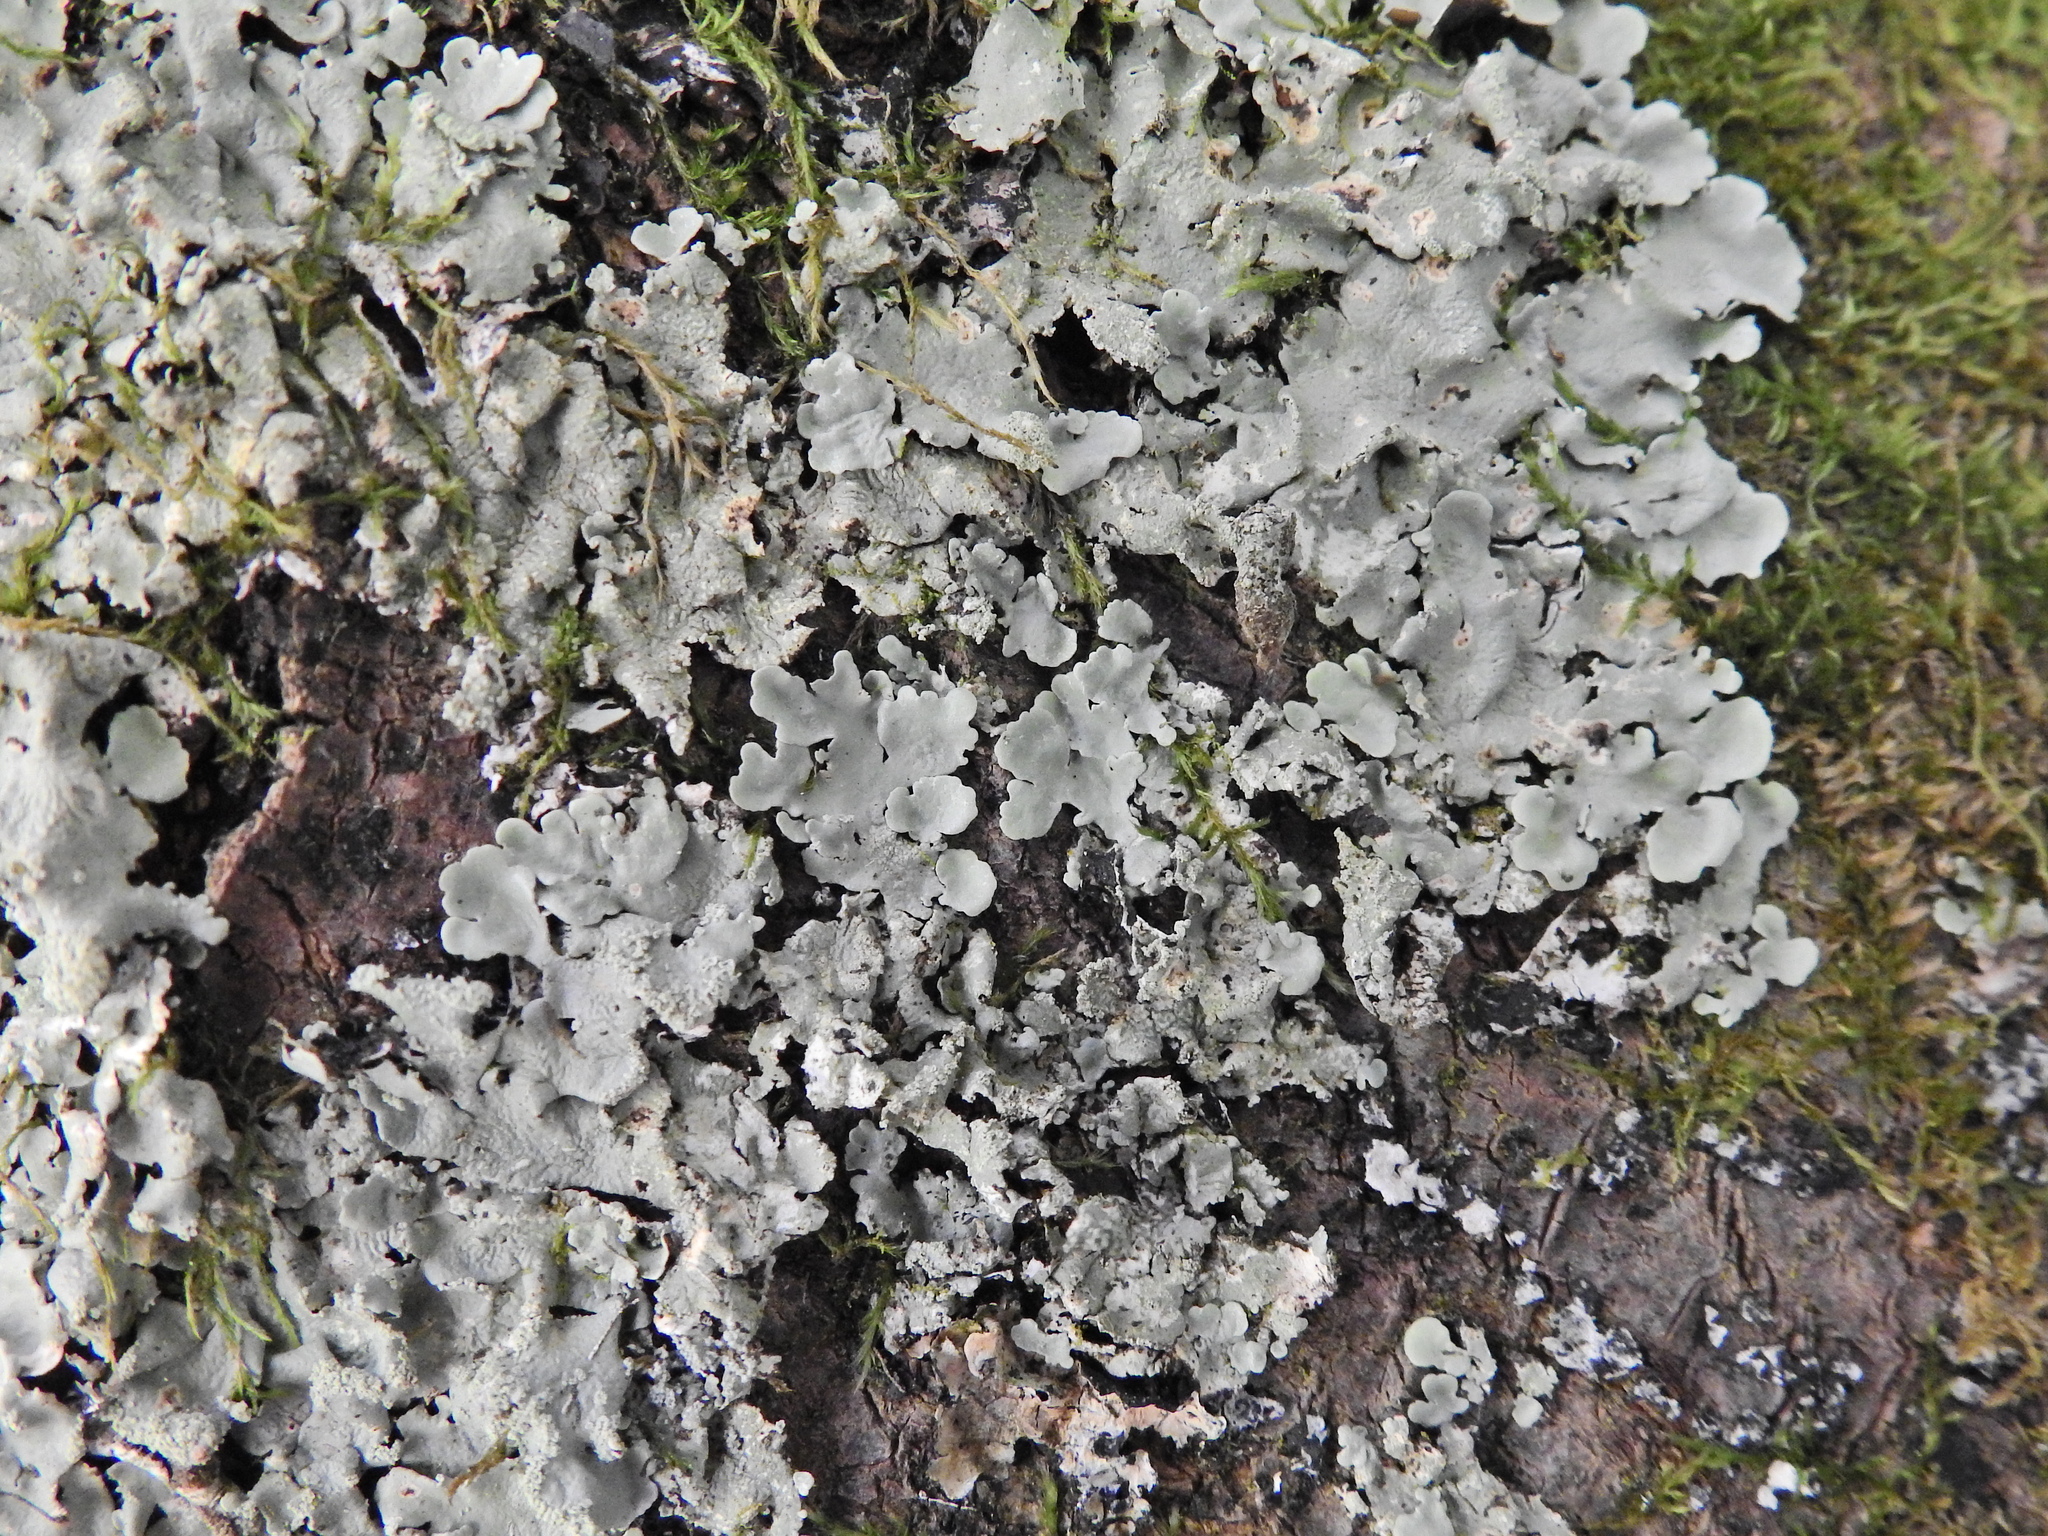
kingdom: Fungi
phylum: Ascomycota
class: Lecanoromycetes
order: Lecanorales
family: Parmeliaceae
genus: Flavoparmelia
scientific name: Flavoparmelia caperata
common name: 40-mile per hour lichen
